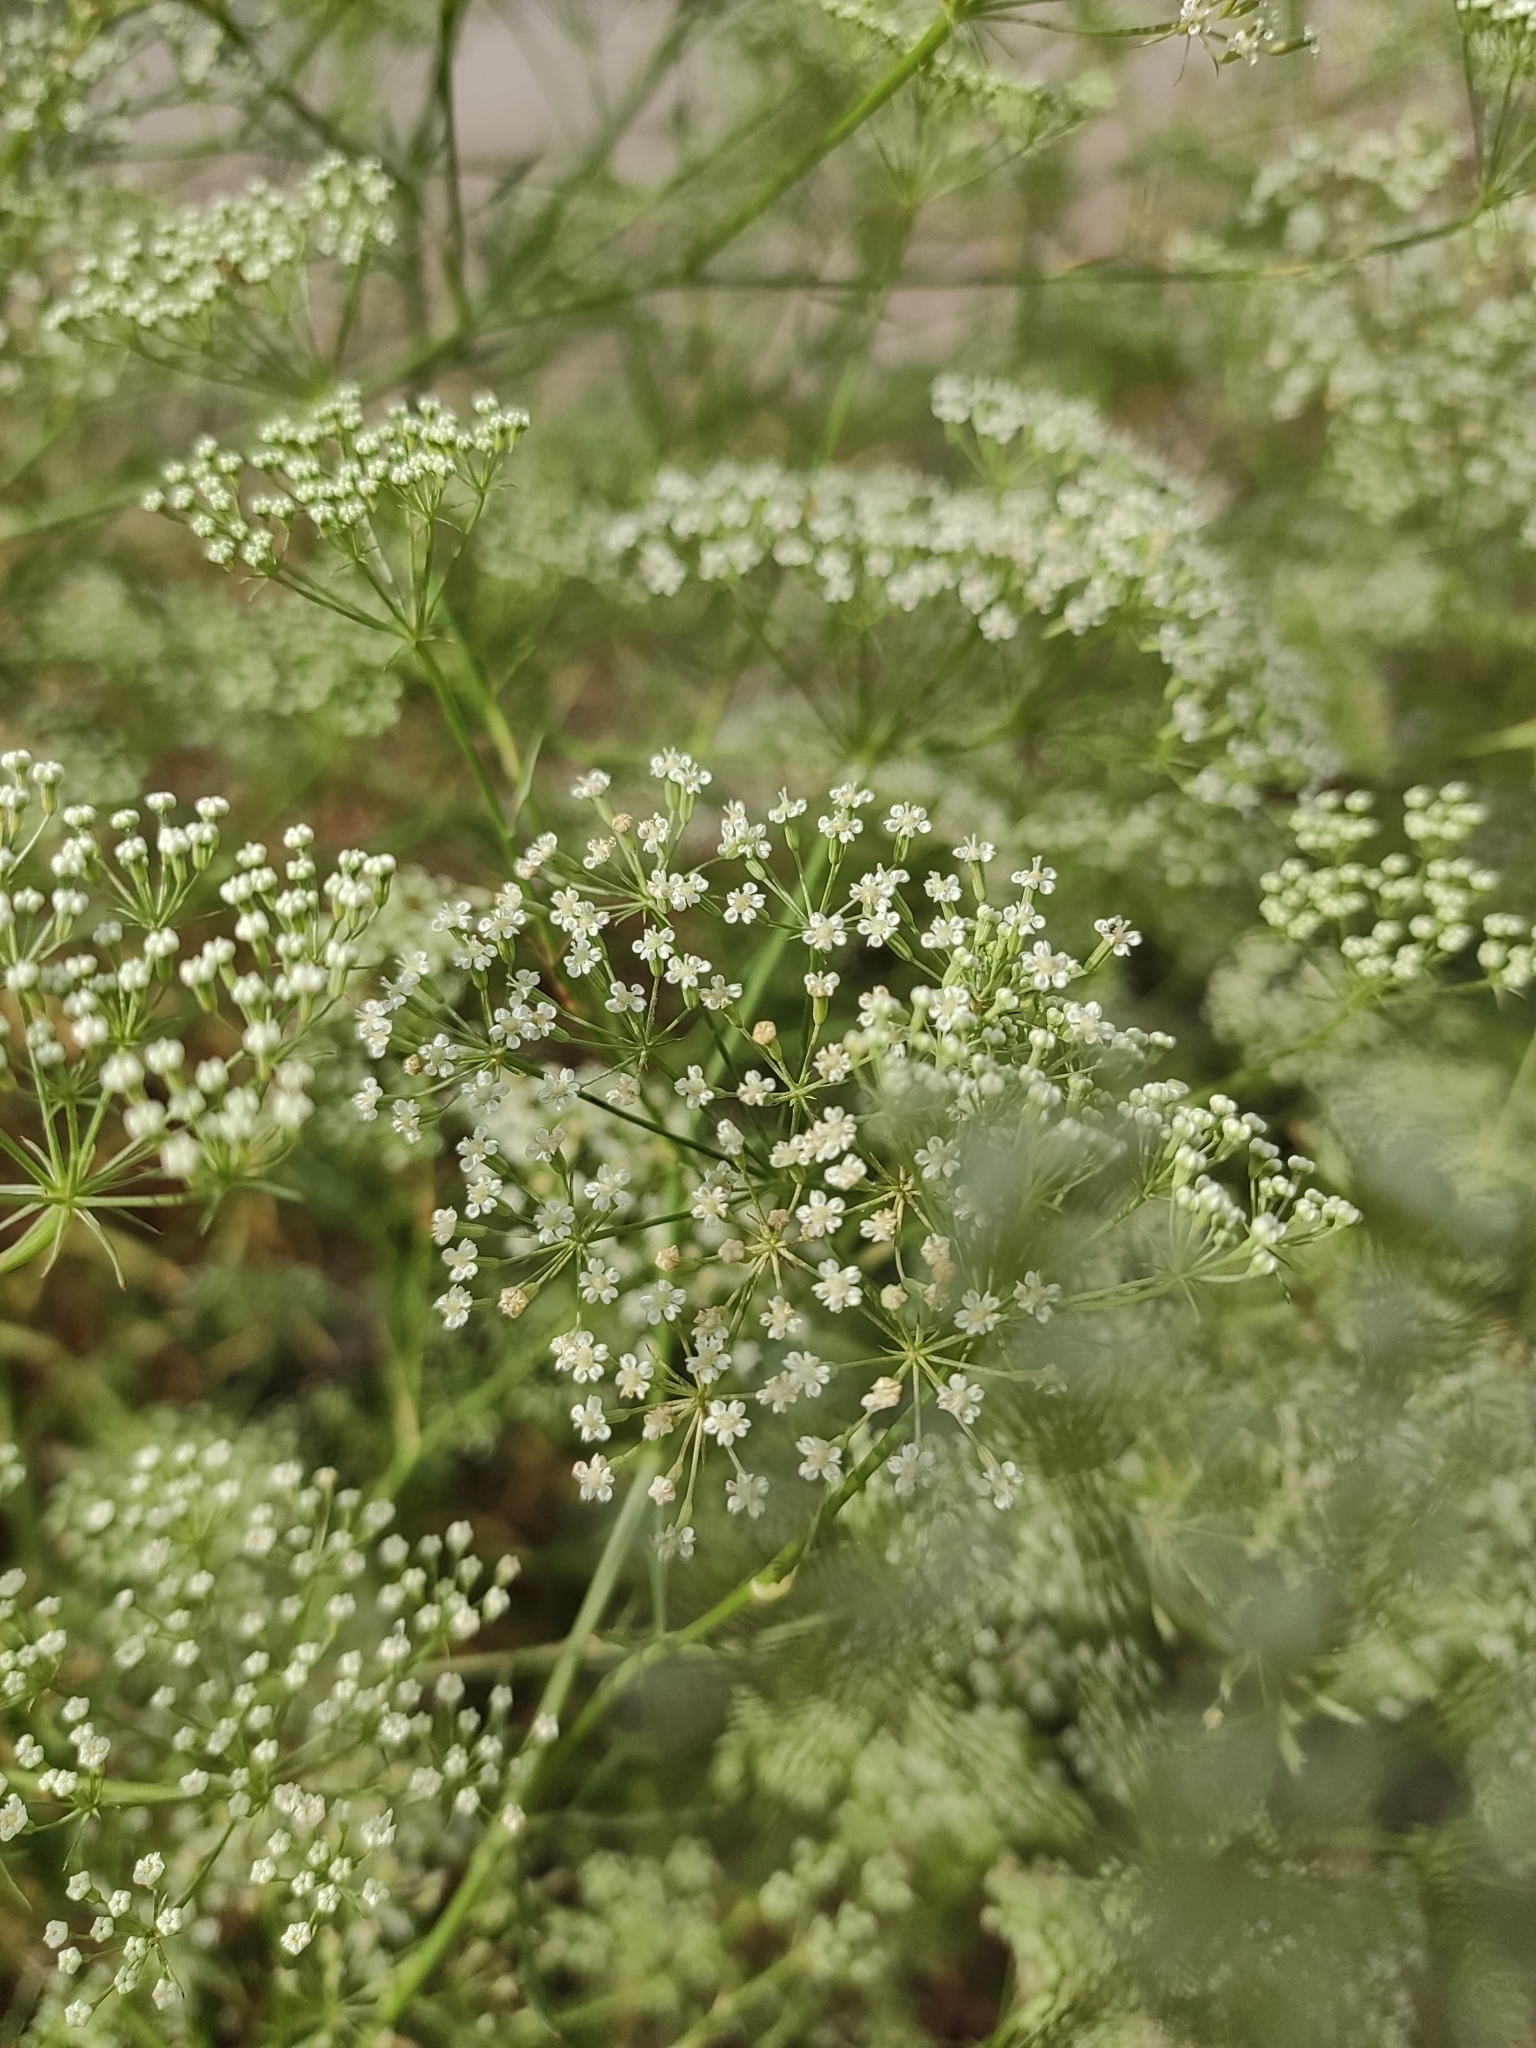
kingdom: Plantae
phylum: Tracheophyta
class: Magnoliopsida
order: Apiales
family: Apiaceae
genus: Falcaria
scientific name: Falcaria vulgaris
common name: Longleaf
